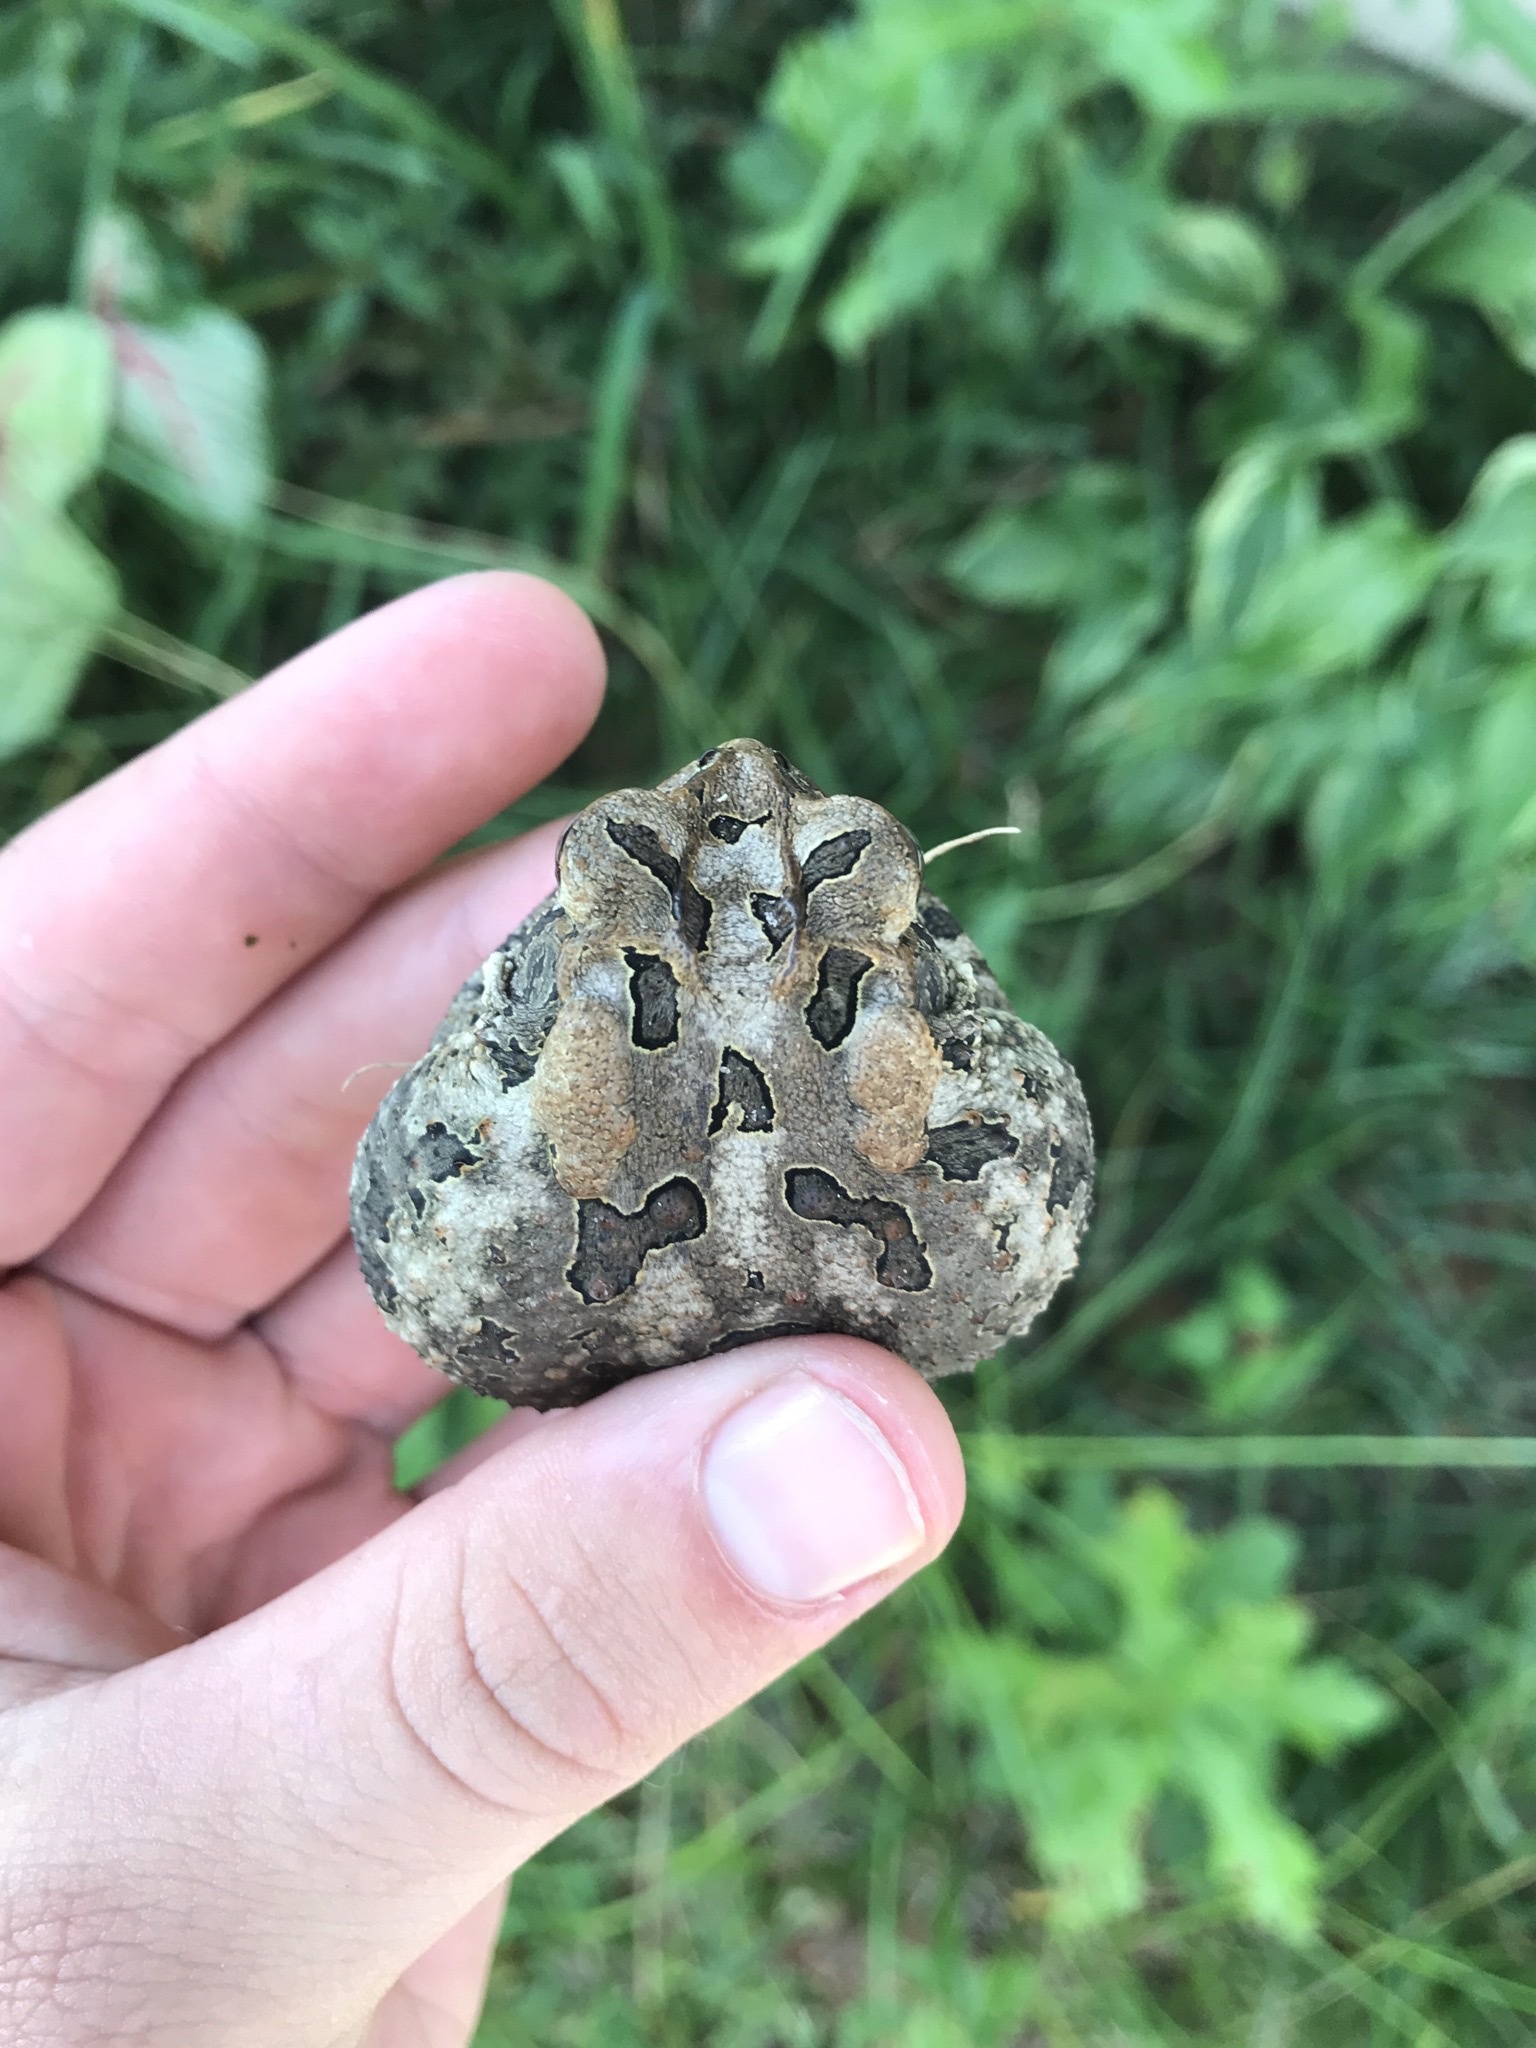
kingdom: Animalia
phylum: Chordata
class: Amphibia
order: Anura
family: Bufonidae
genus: Anaxyrus
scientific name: Anaxyrus terrestris
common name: Southern toad
